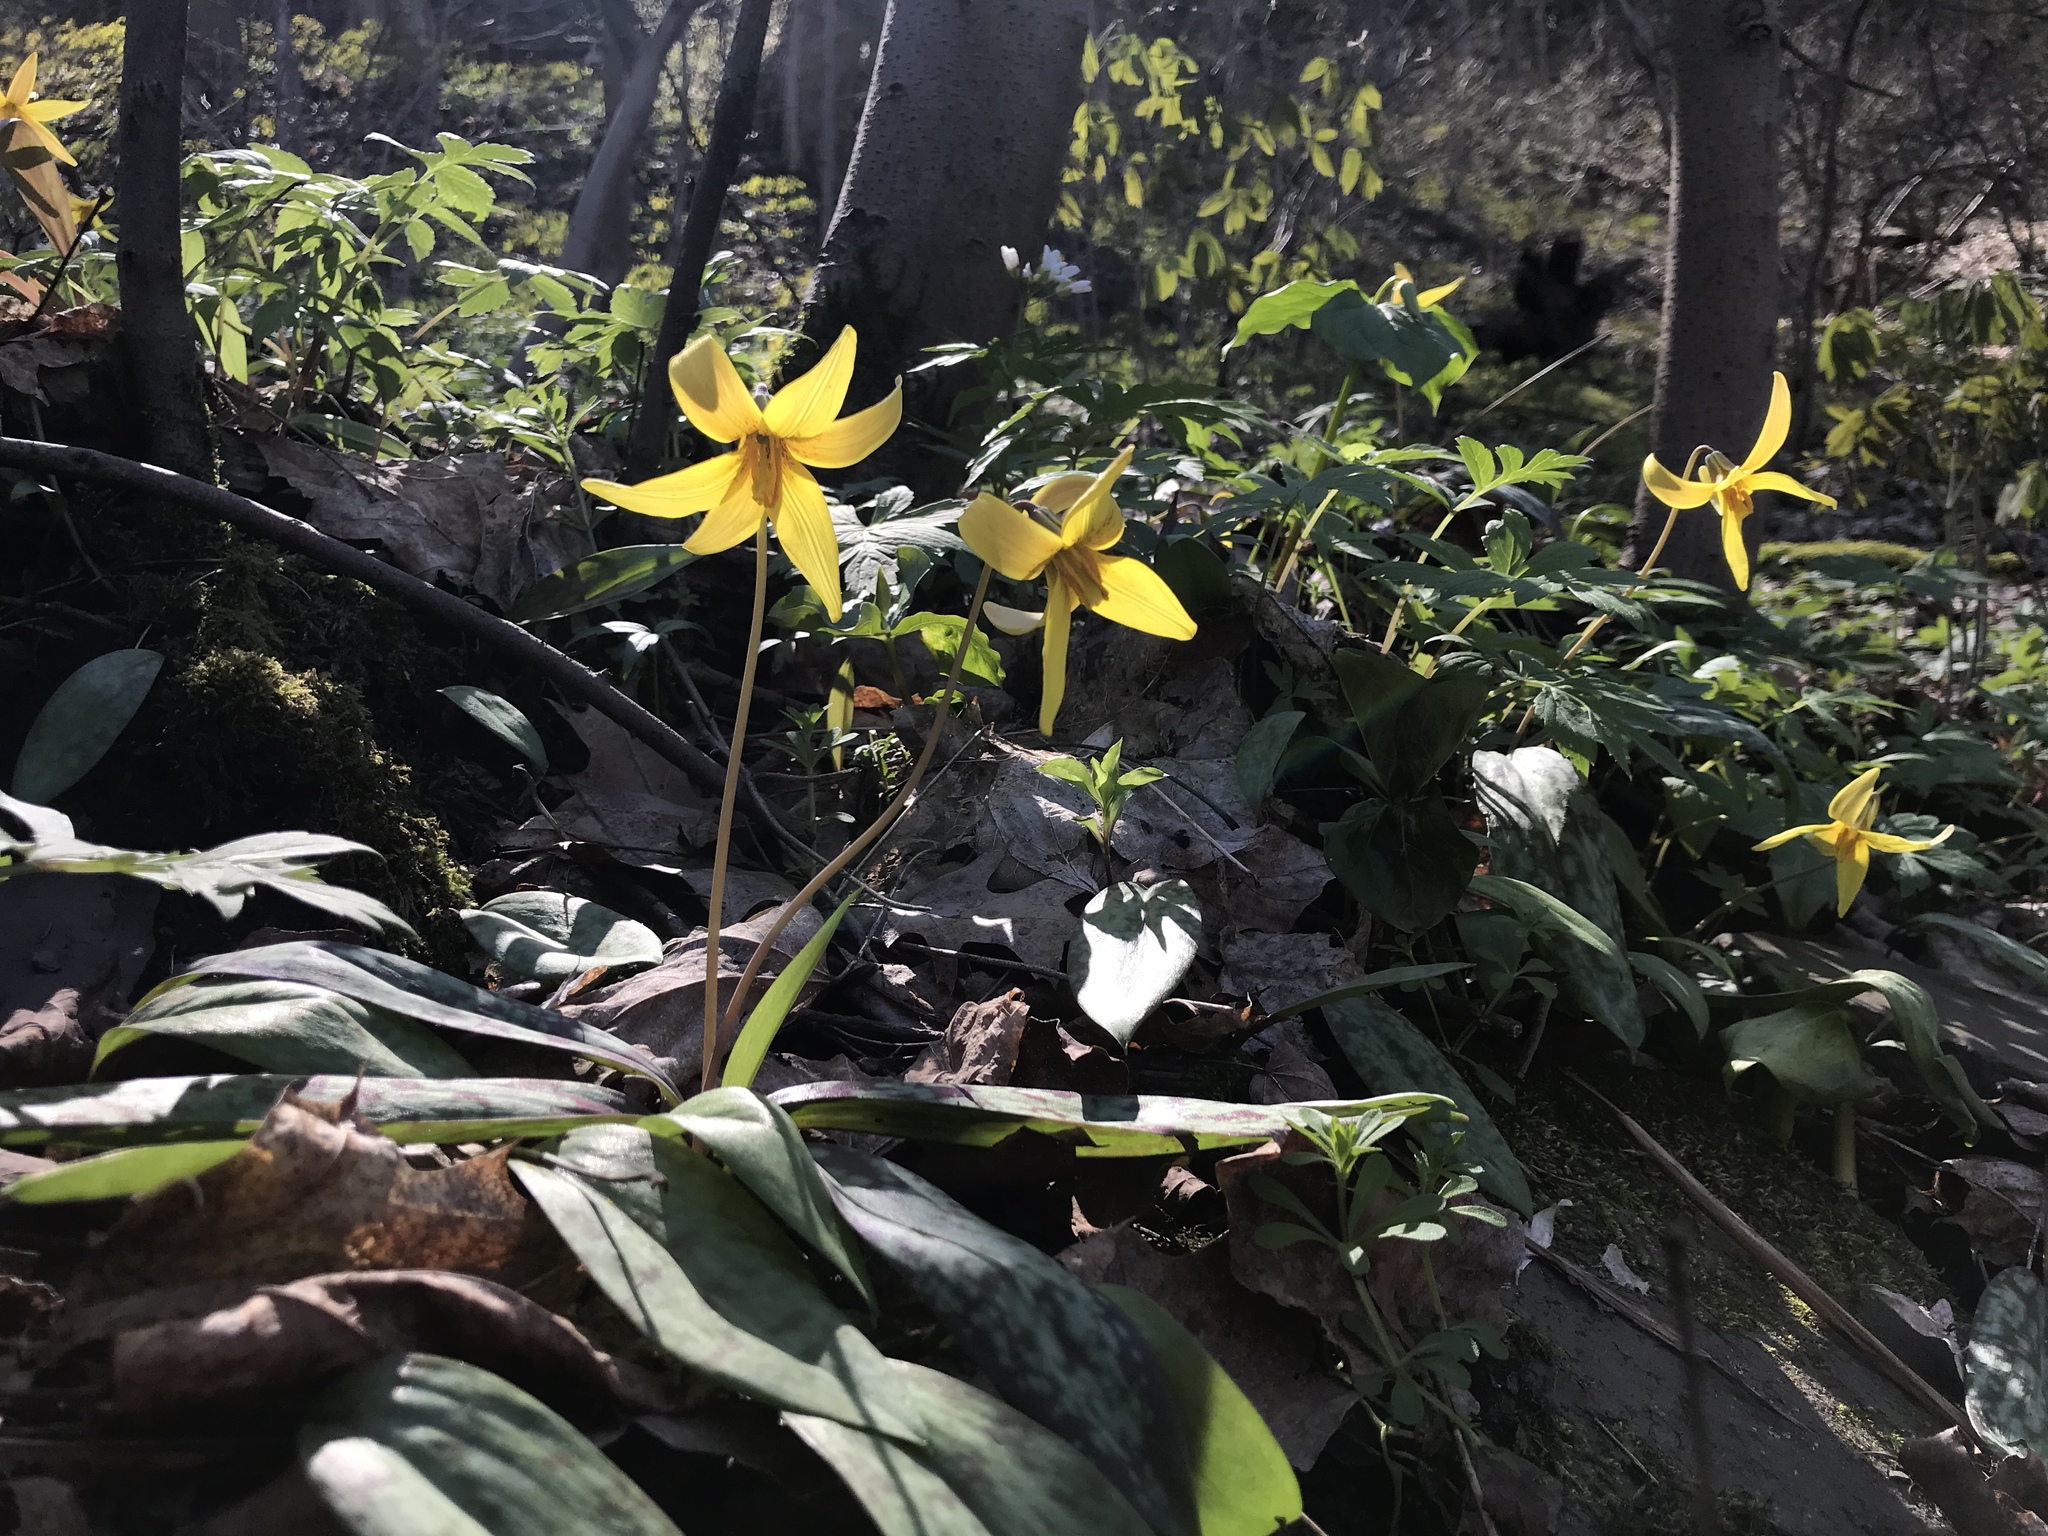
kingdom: Plantae
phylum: Tracheophyta
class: Liliopsida
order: Liliales
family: Liliaceae
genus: Erythronium
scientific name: Erythronium americanum
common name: Yellow adder's-tongue
